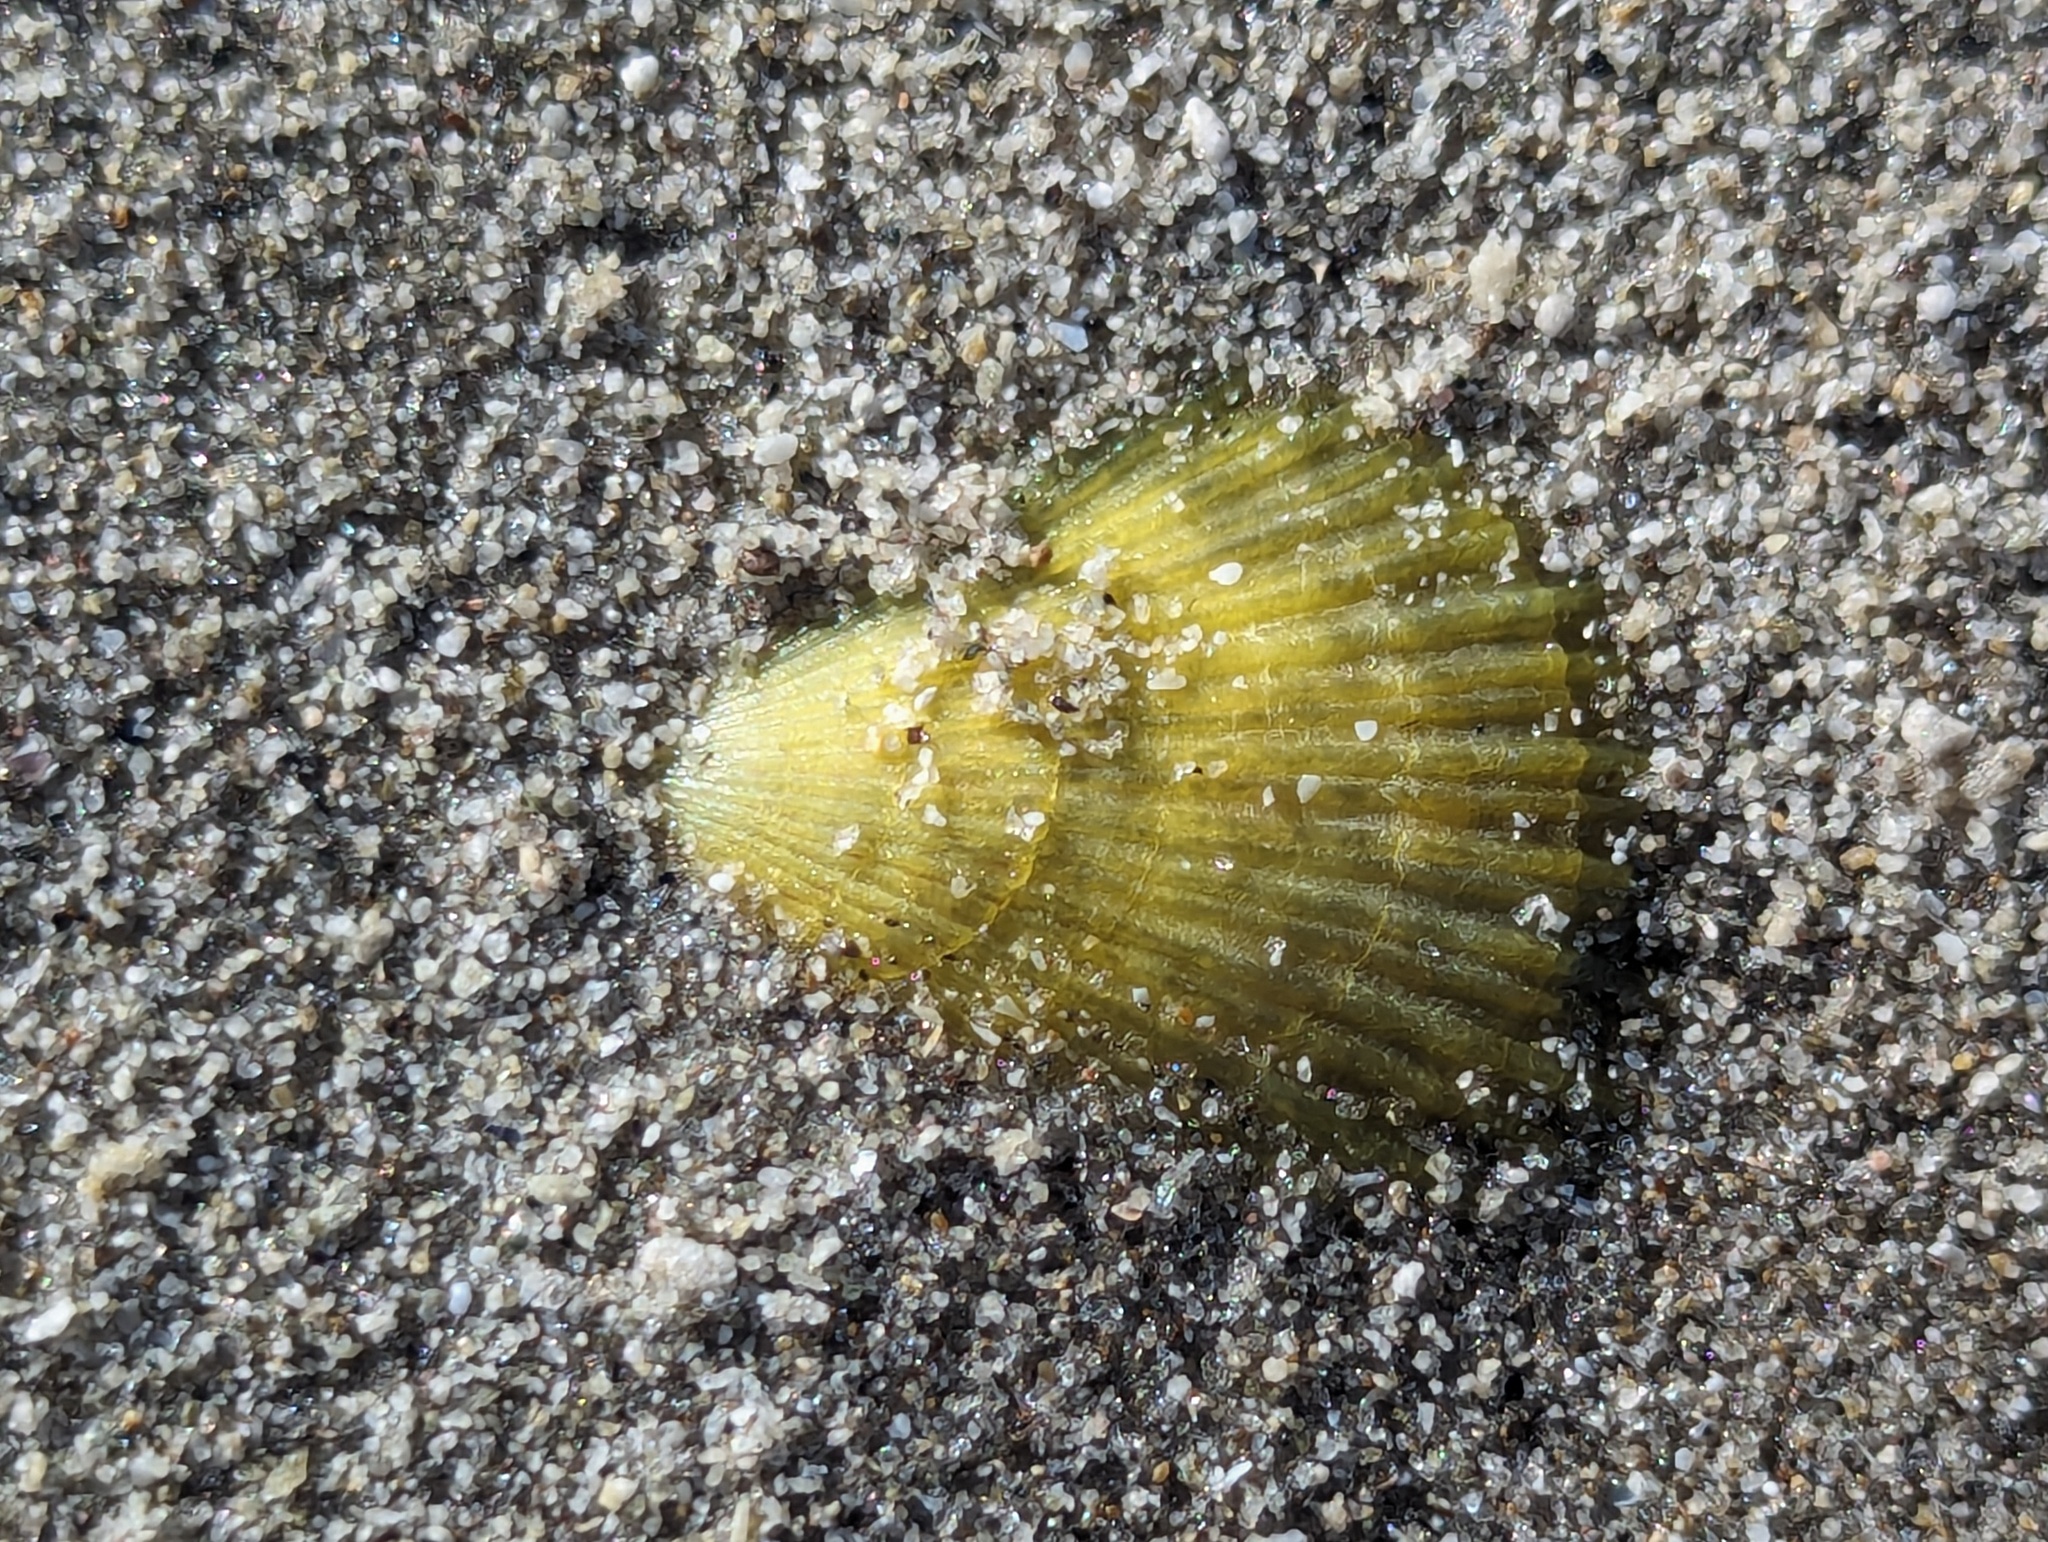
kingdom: Animalia
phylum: Mollusca
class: Bivalvia
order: Pectinida
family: Pectinidae
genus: Talochlamys
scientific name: Talochlamys zelandiae
